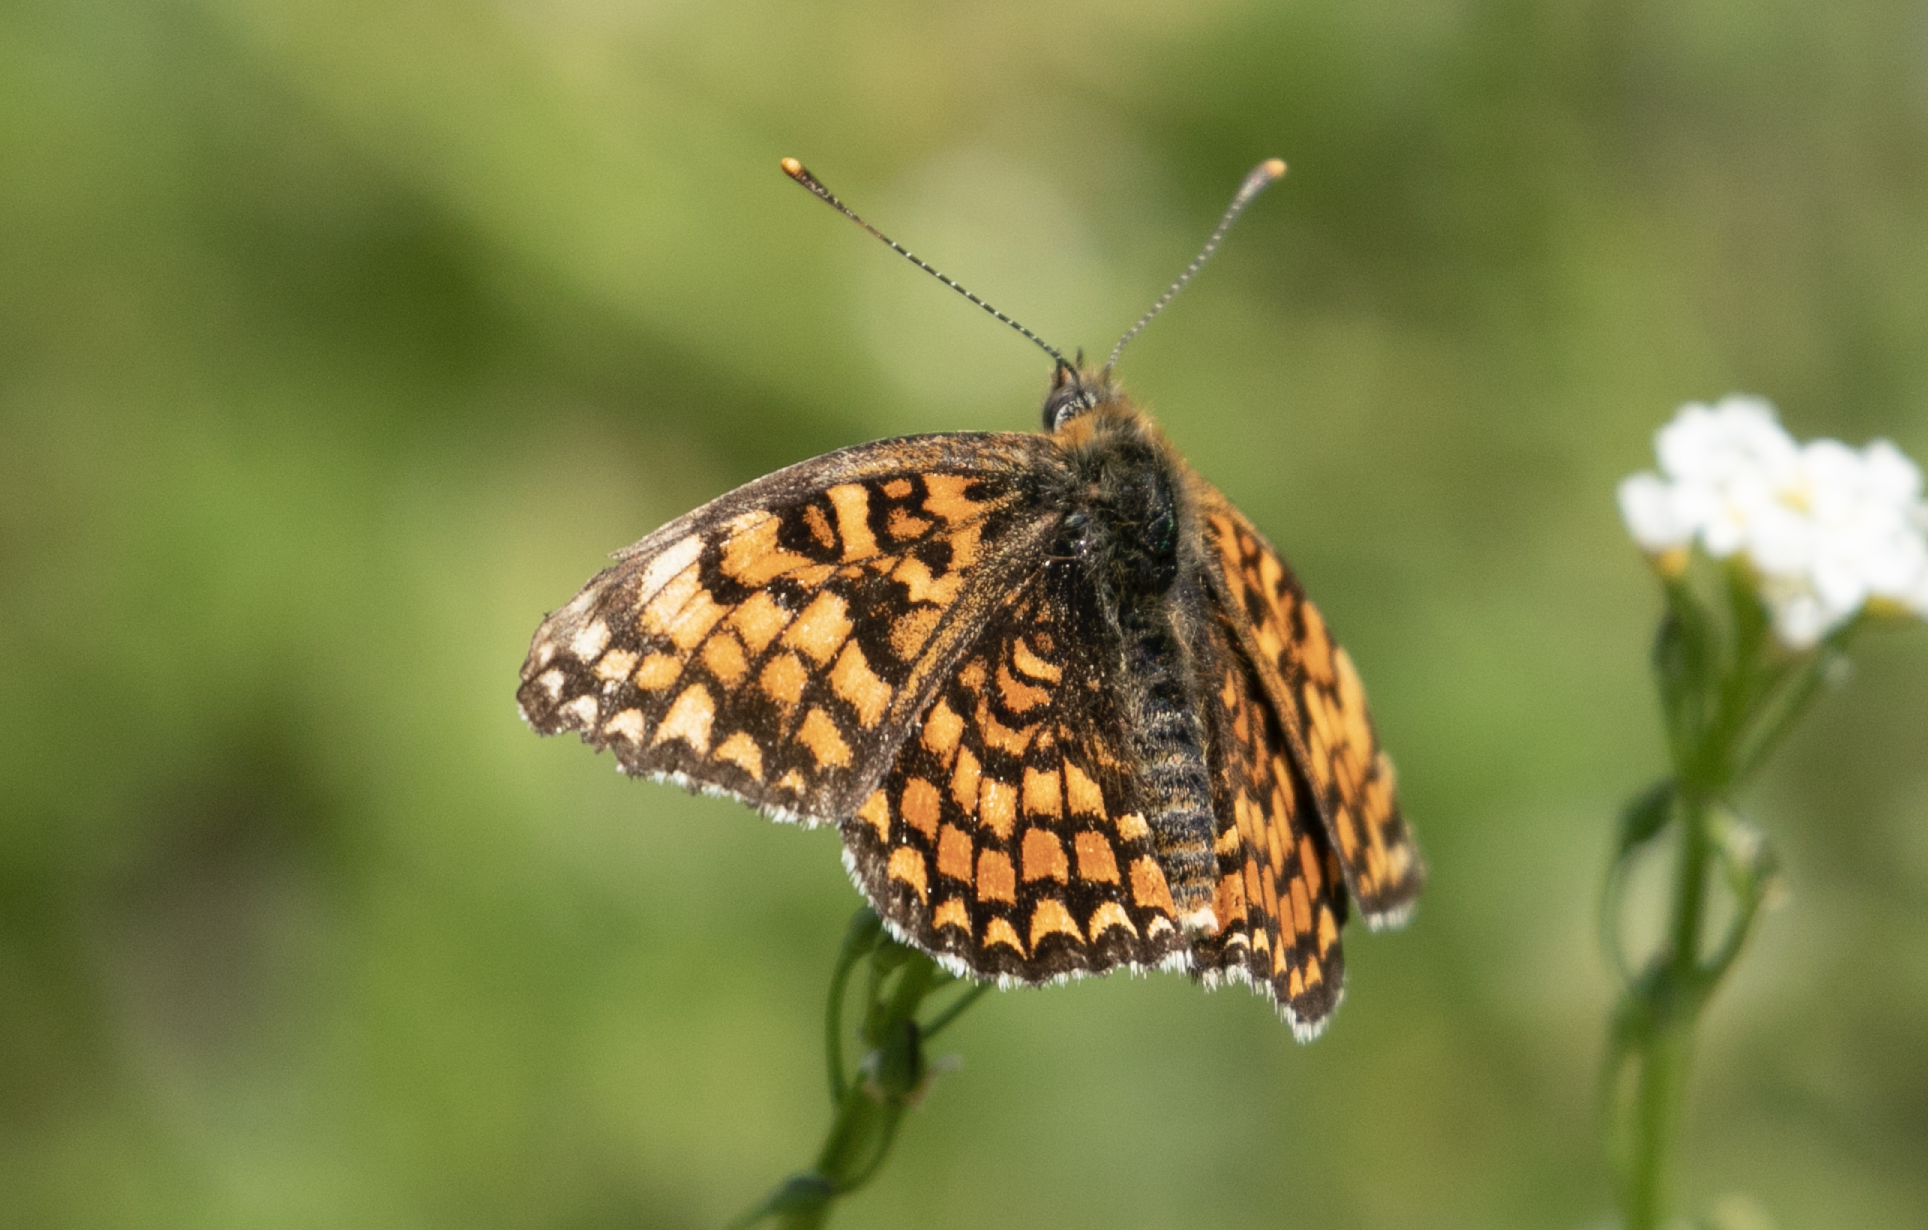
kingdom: Animalia
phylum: Arthropoda
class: Insecta
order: Lepidoptera
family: Nymphalidae
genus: Melitaea
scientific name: Melitaea phoebe
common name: Knapweed fritillary
